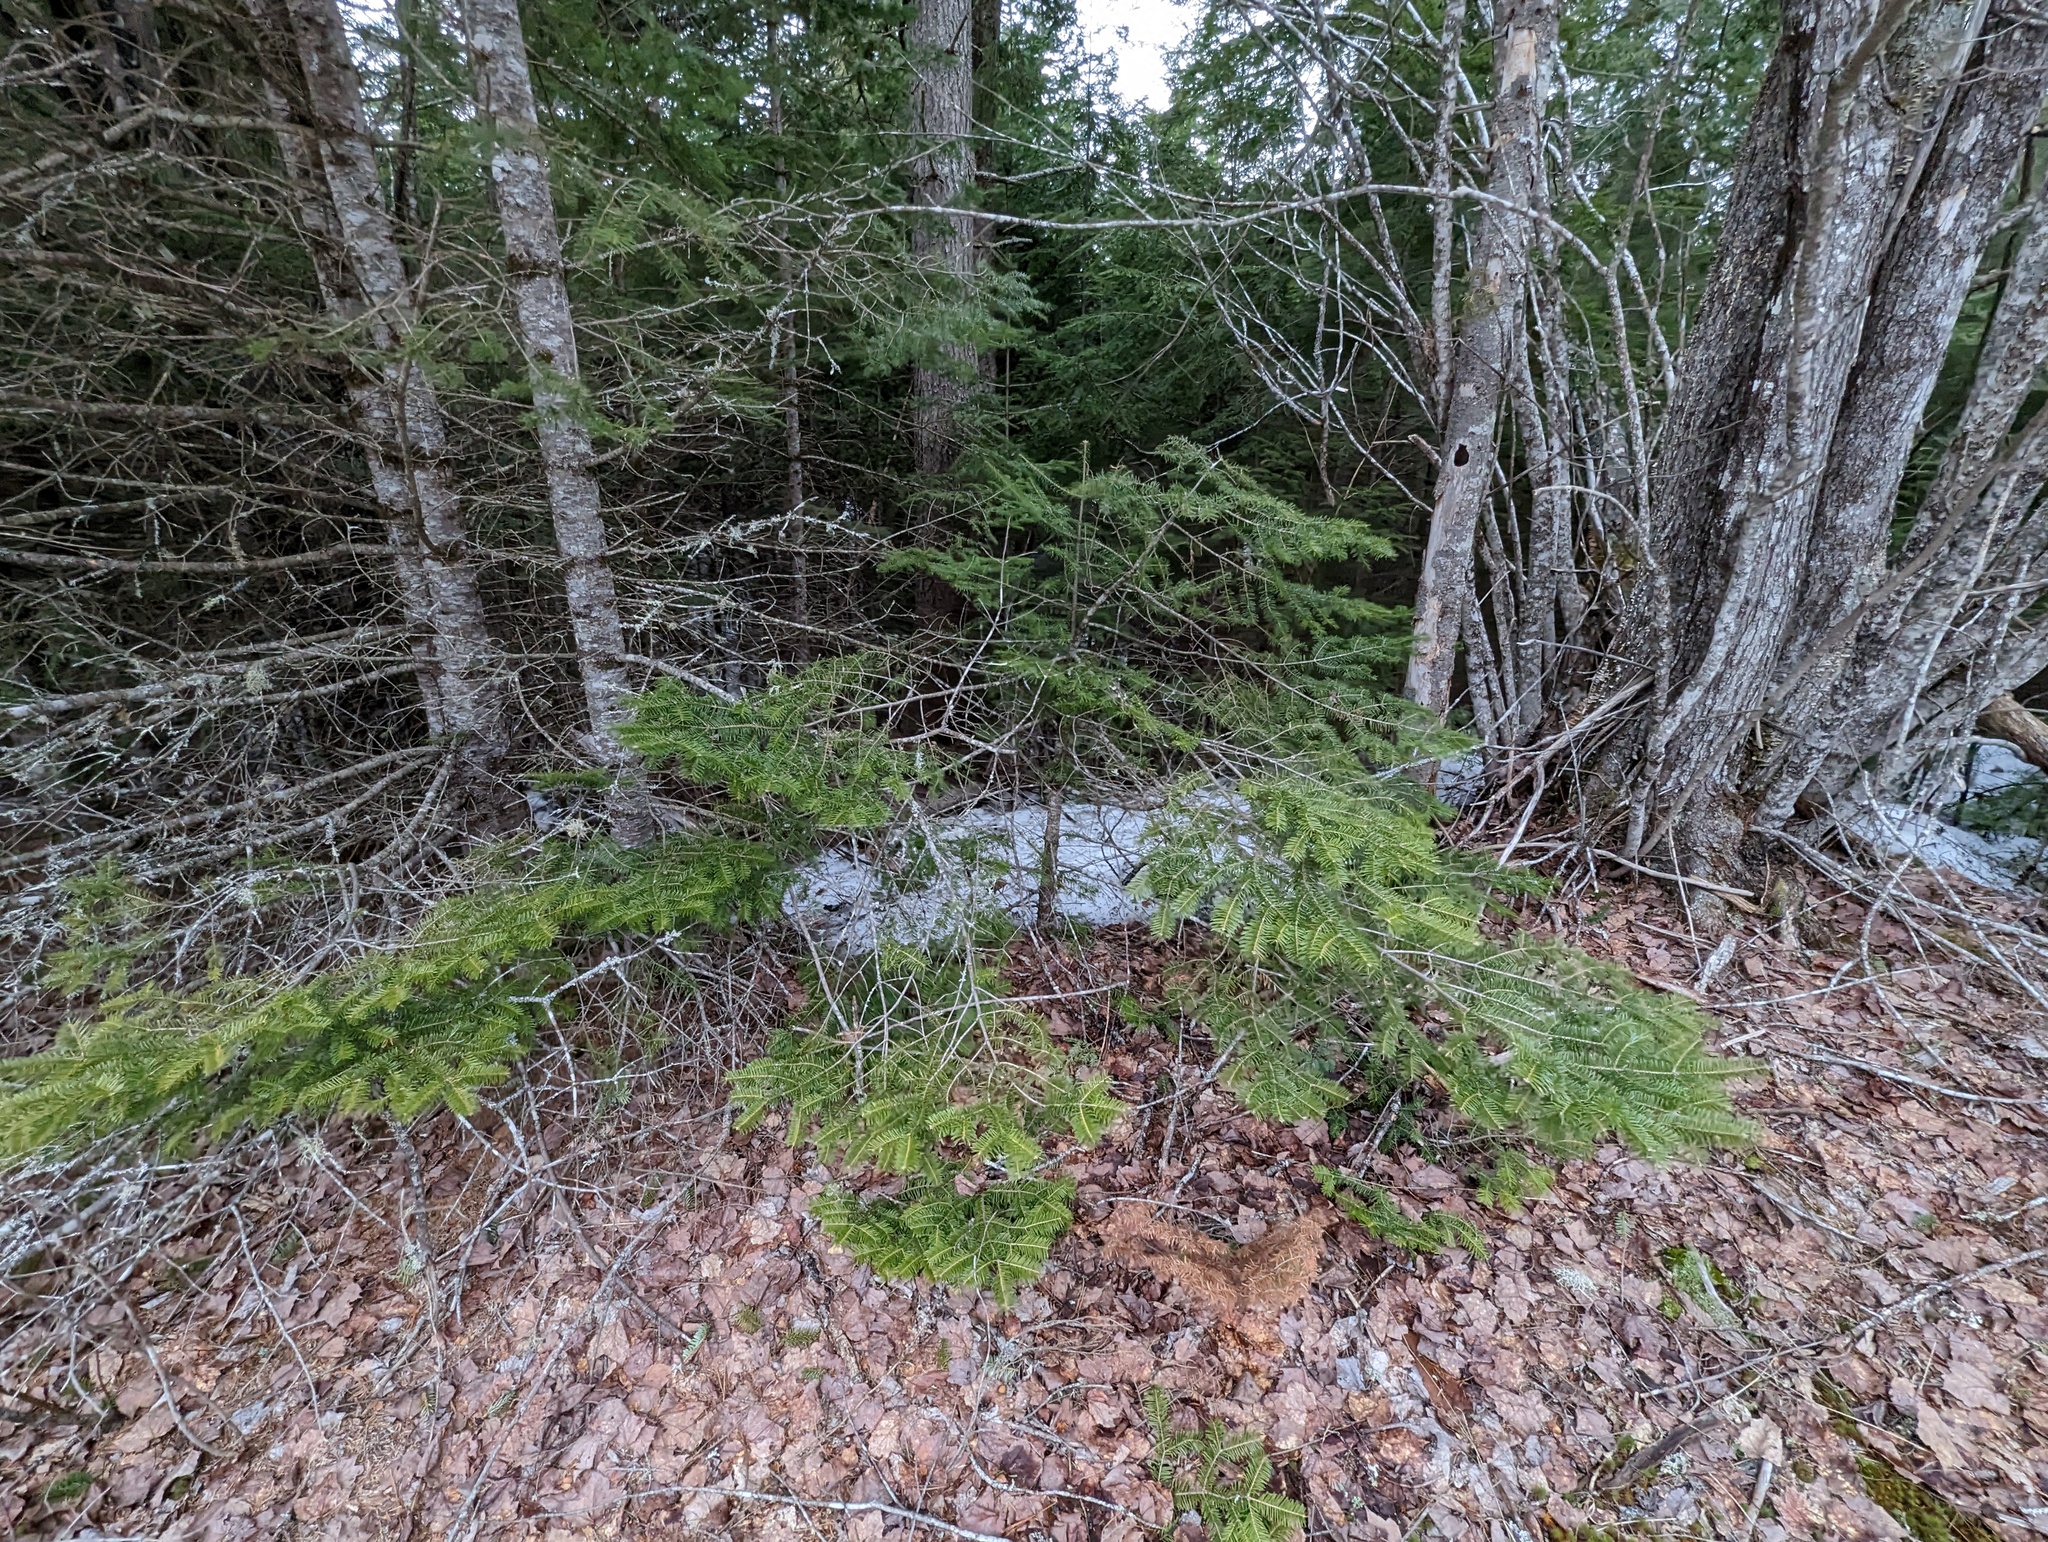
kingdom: Plantae
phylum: Tracheophyta
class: Pinopsida
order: Pinales
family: Pinaceae
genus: Abies
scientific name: Abies balsamea
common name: Balsam fir
